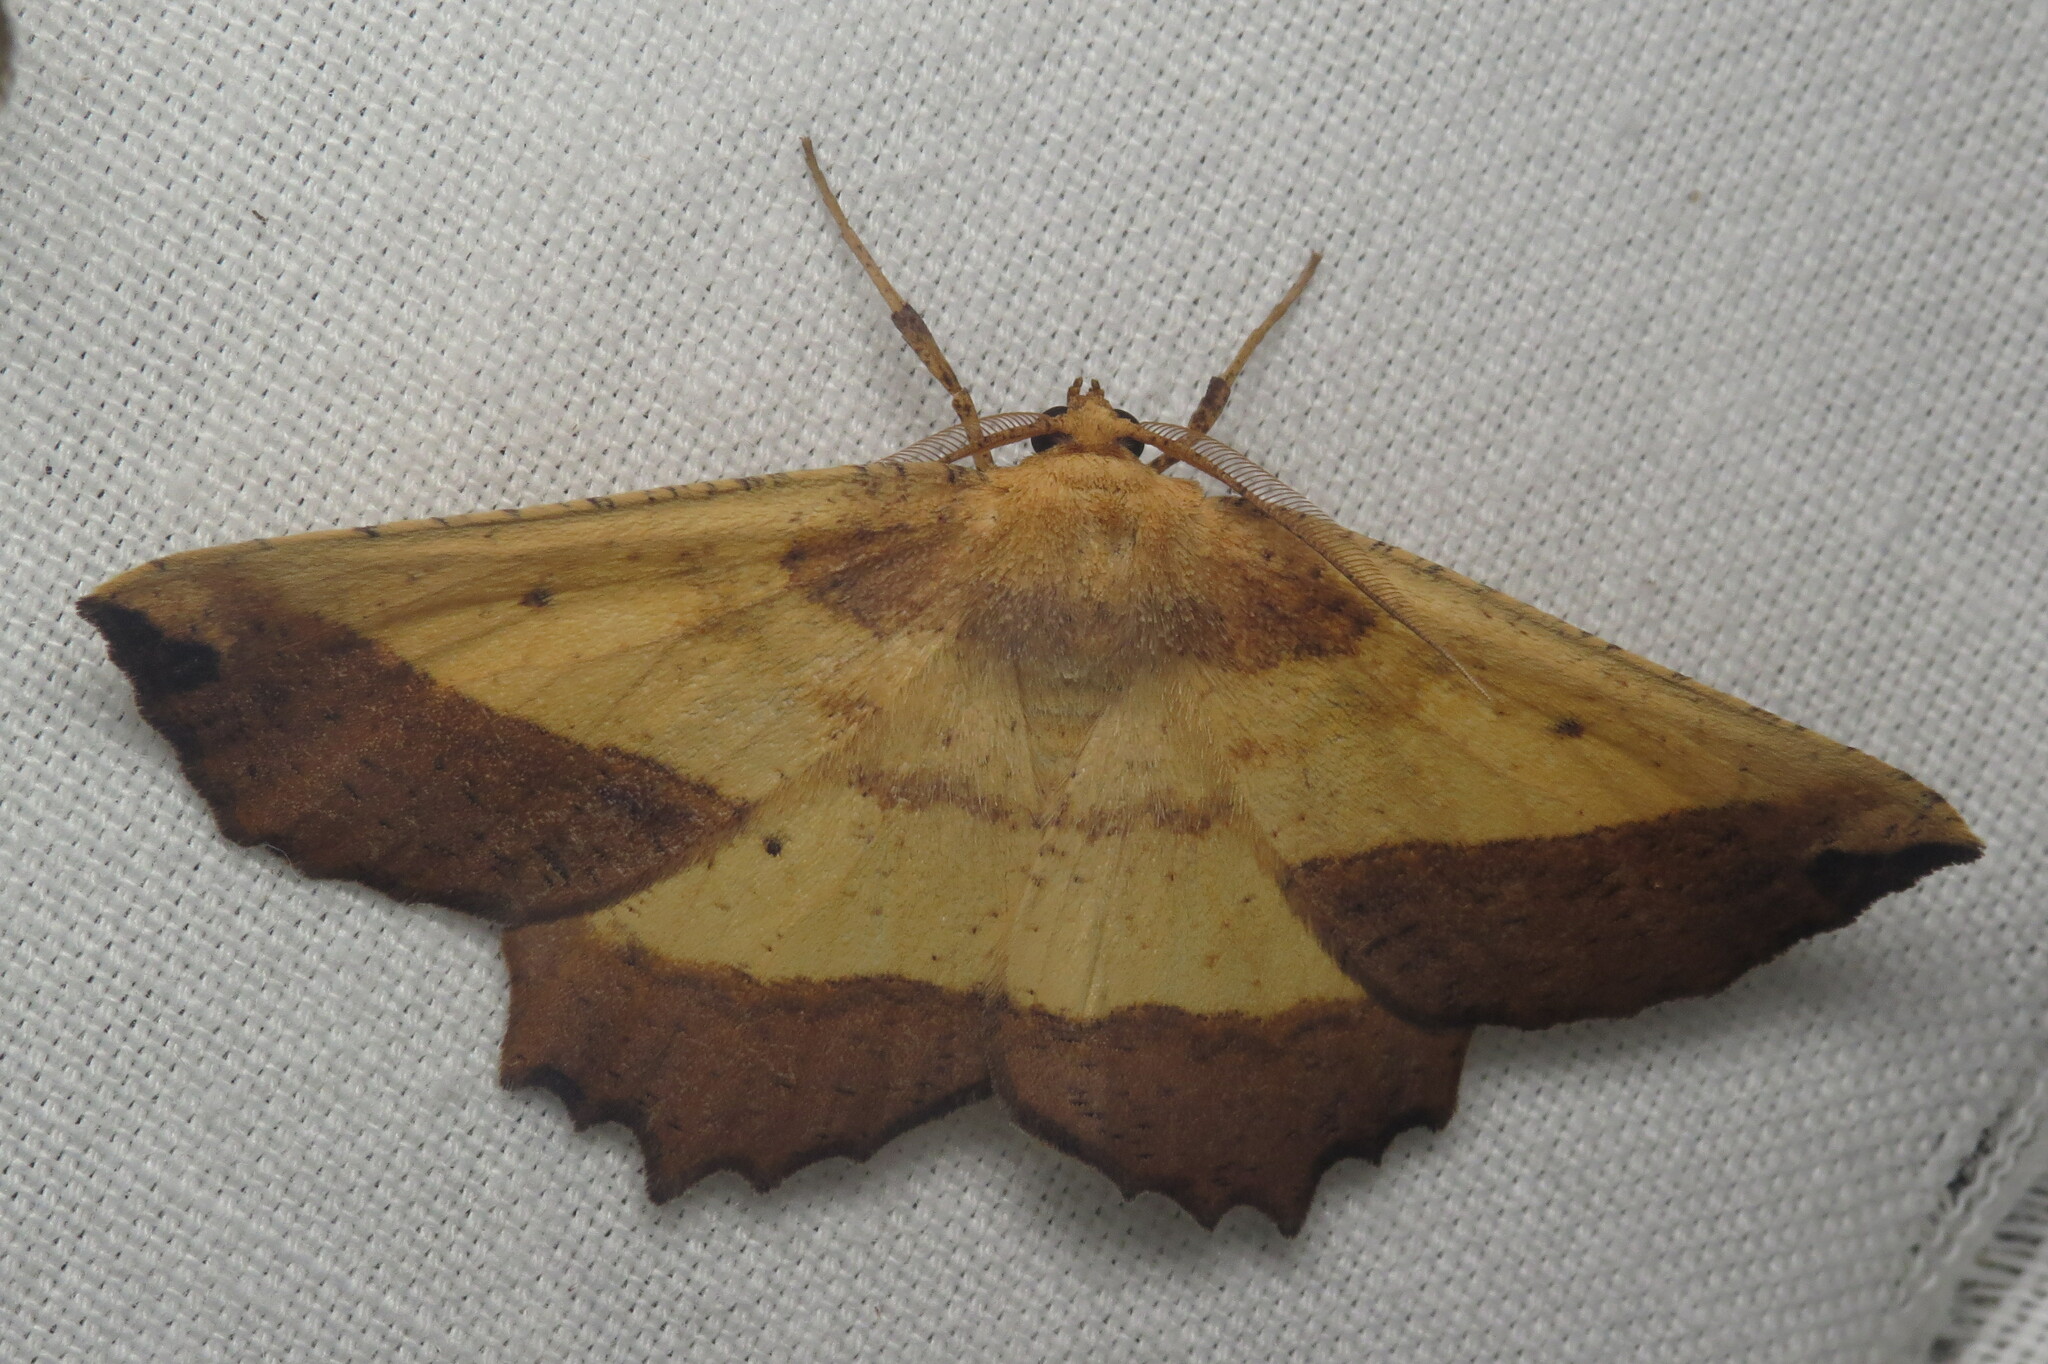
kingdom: Animalia
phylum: Arthropoda
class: Insecta
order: Lepidoptera
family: Geometridae
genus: Euchlaena
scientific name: Euchlaena serrata
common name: Saw wing
